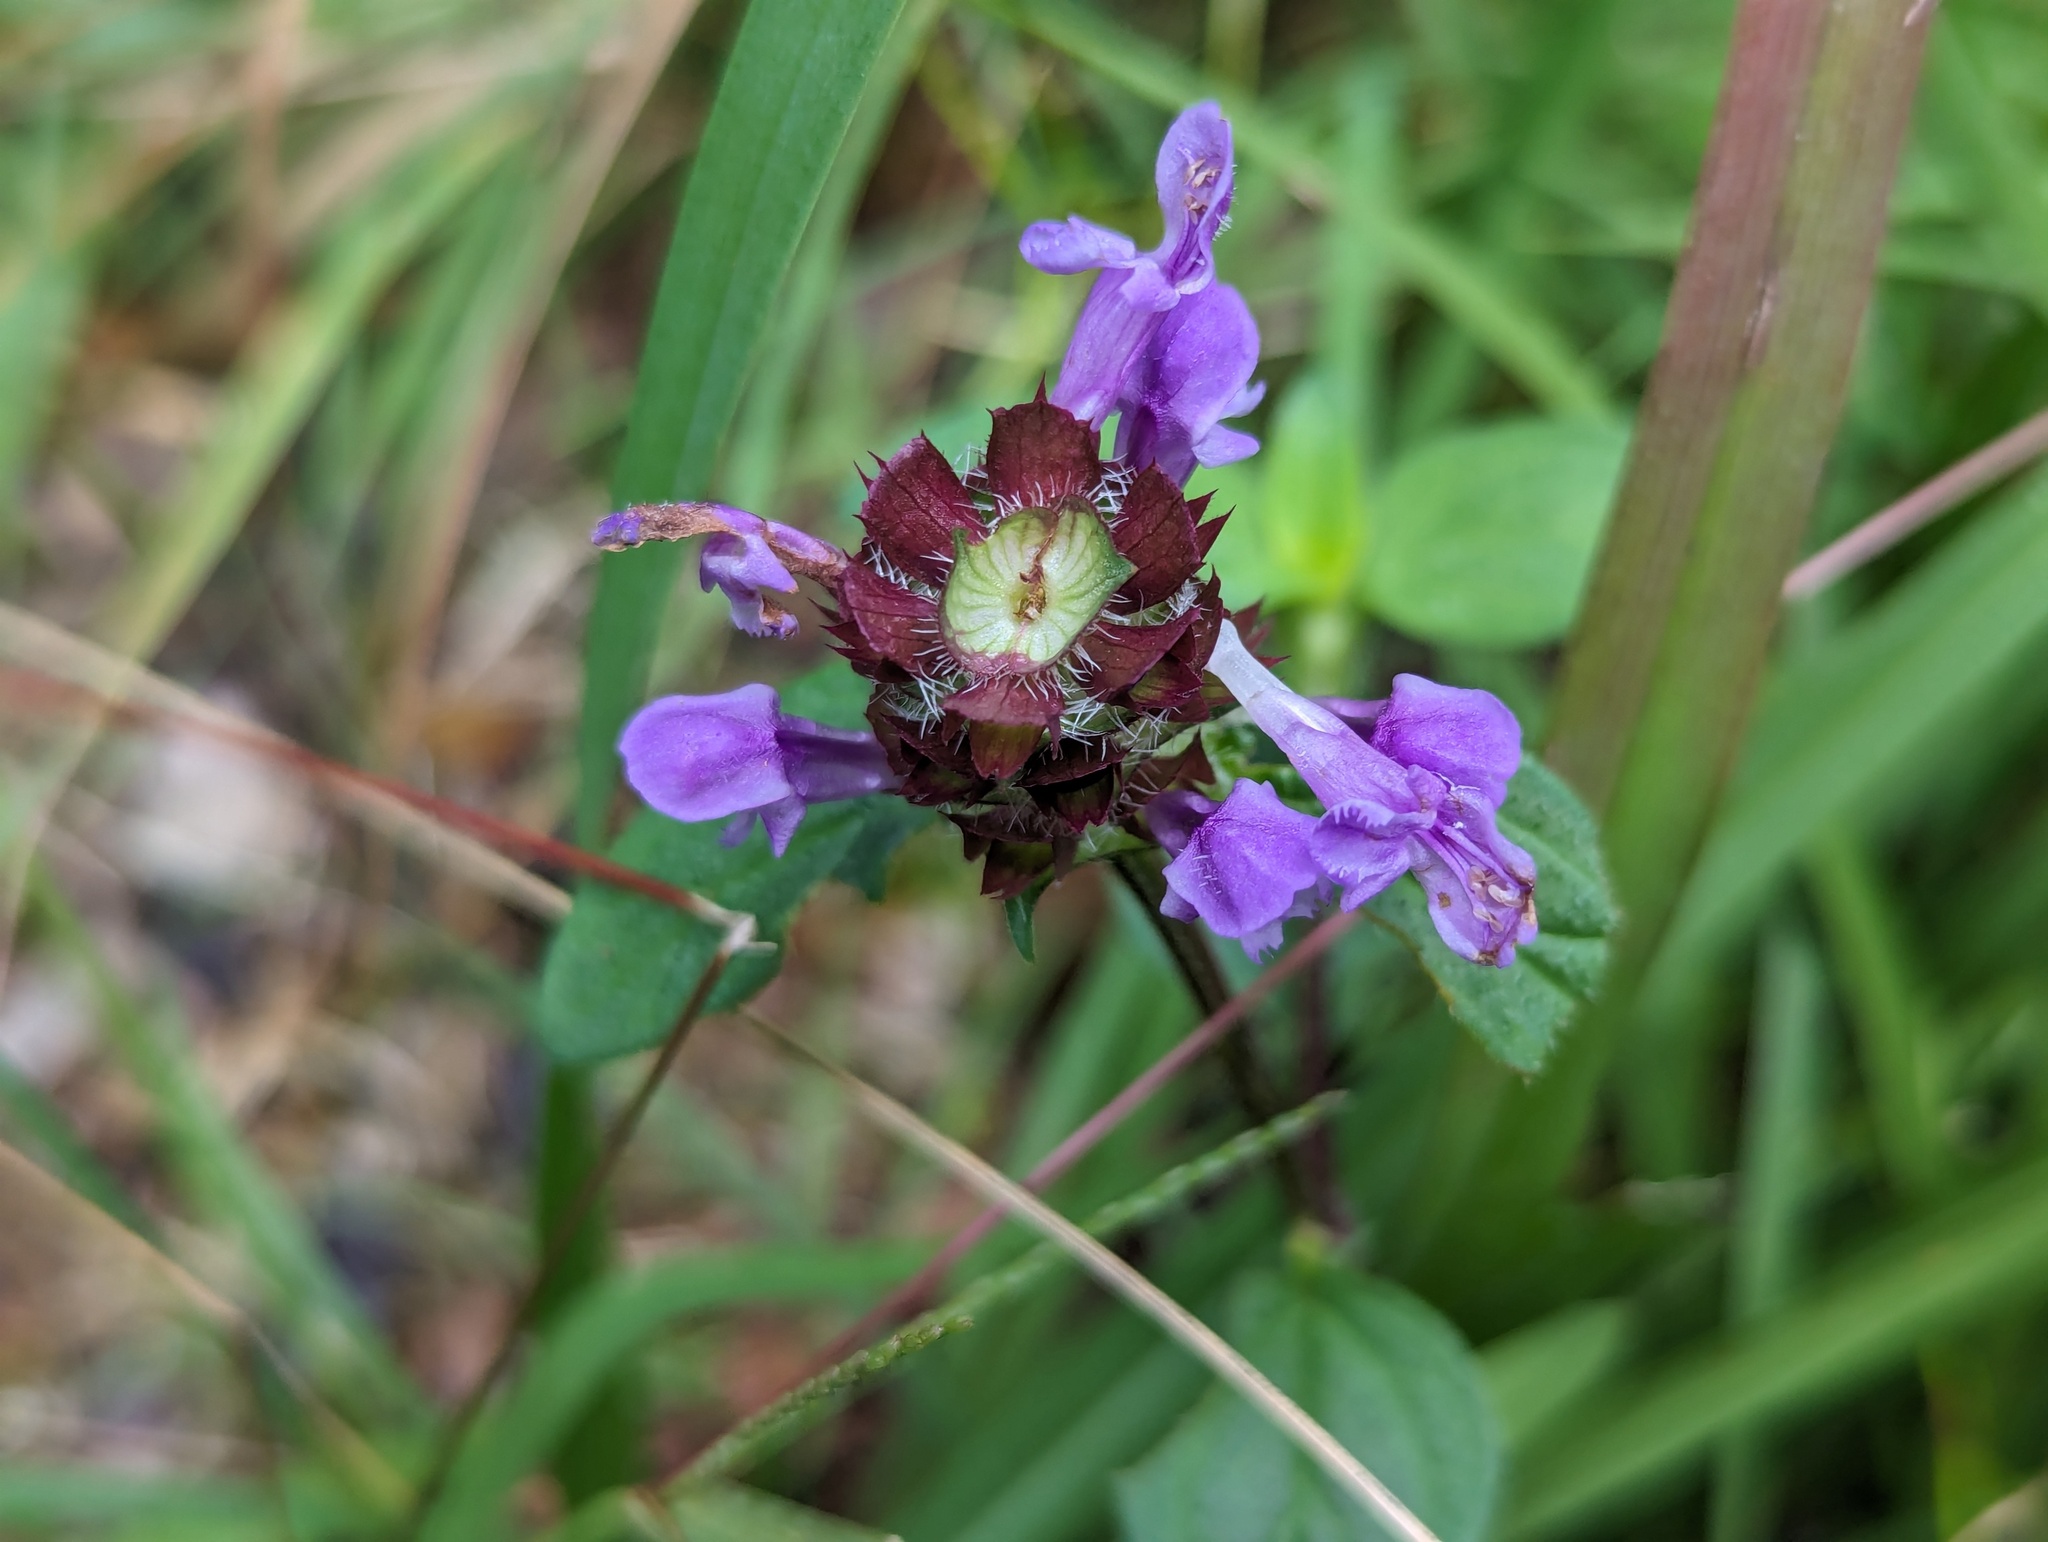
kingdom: Plantae
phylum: Tracheophyta
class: Magnoliopsida
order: Lamiales
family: Lamiaceae
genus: Prunella
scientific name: Prunella vulgaris
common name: Heal-all
